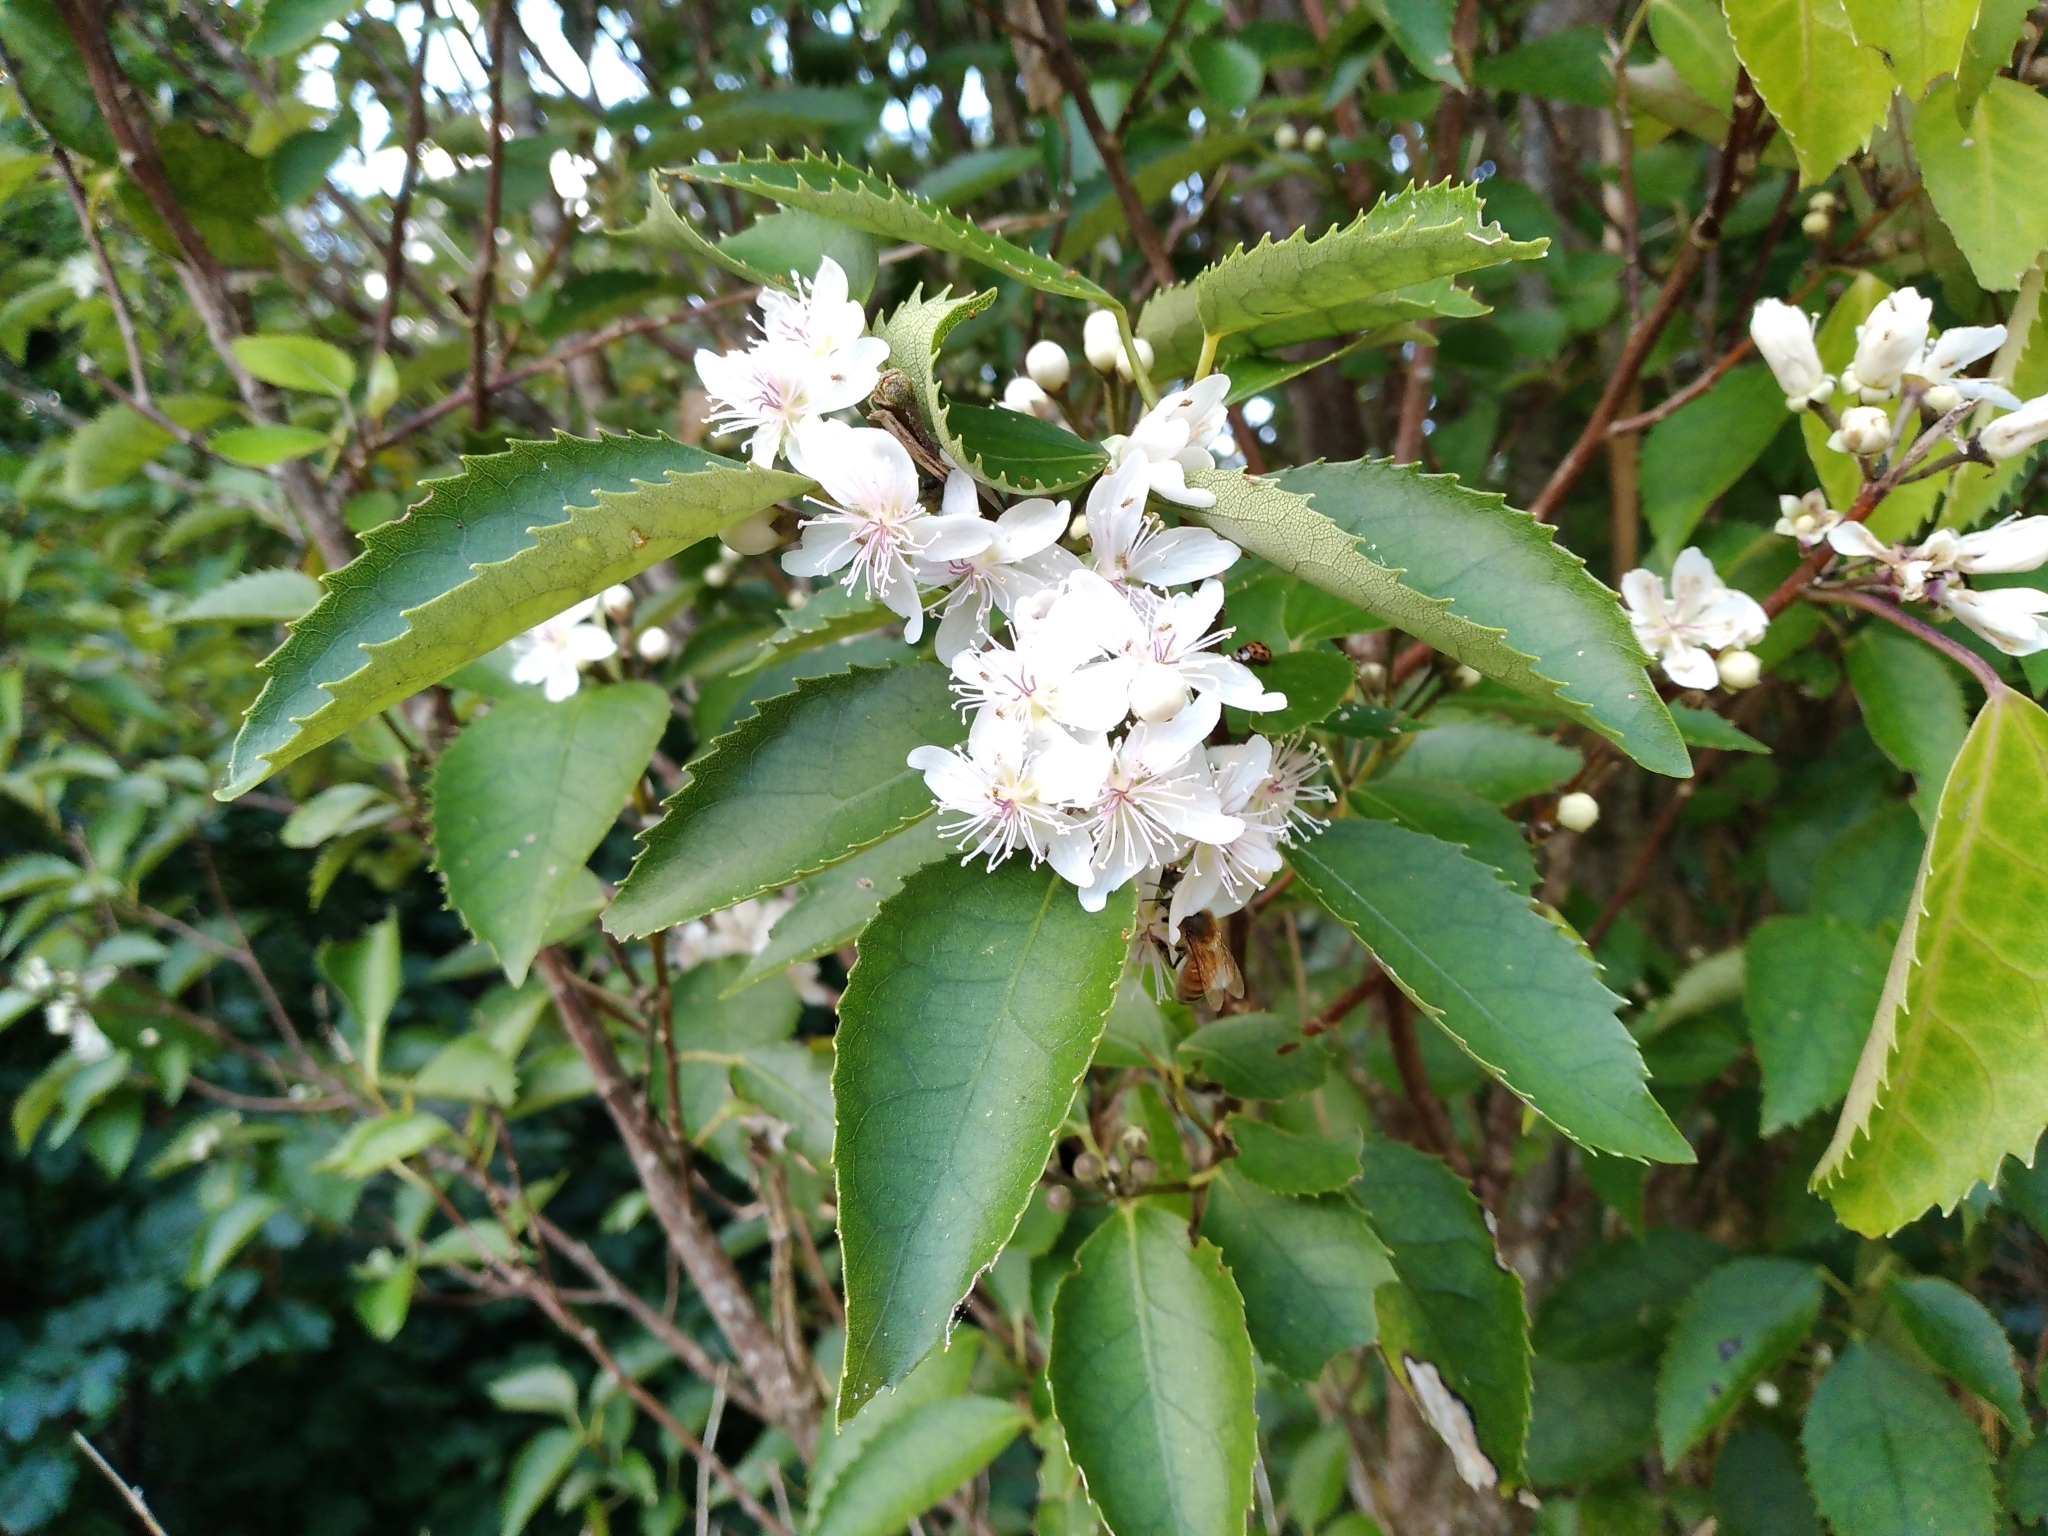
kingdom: Plantae
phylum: Tracheophyta
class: Magnoliopsida
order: Malvales
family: Malvaceae
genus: Hoheria
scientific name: Hoheria populnea
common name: Lacebark
